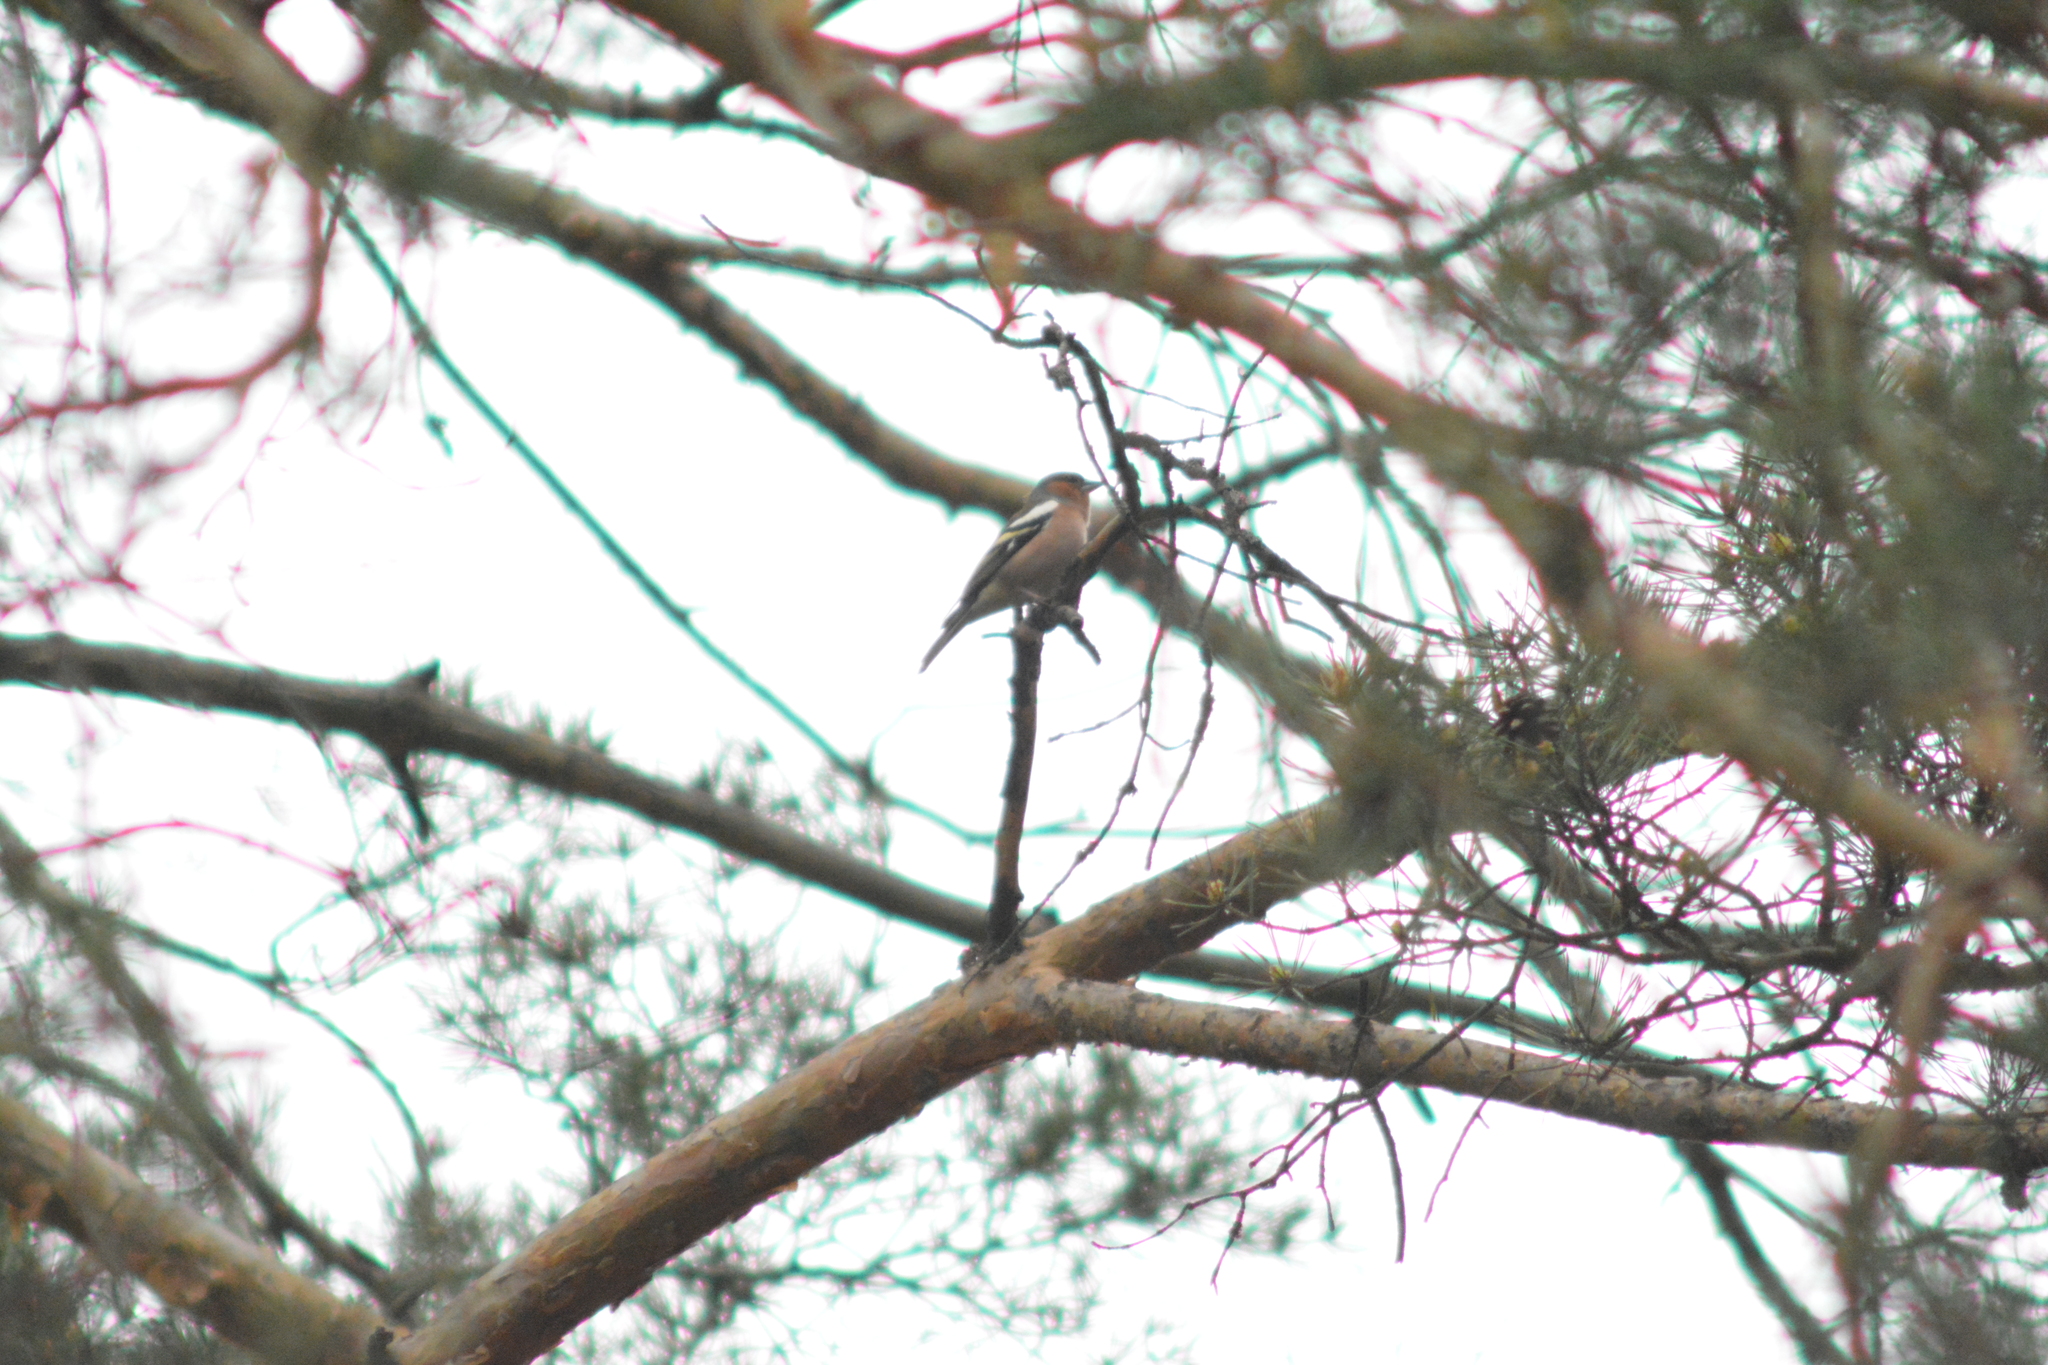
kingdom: Animalia
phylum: Chordata
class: Aves
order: Passeriformes
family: Fringillidae
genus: Fringilla
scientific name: Fringilla coelebs
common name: Common chaffinch
